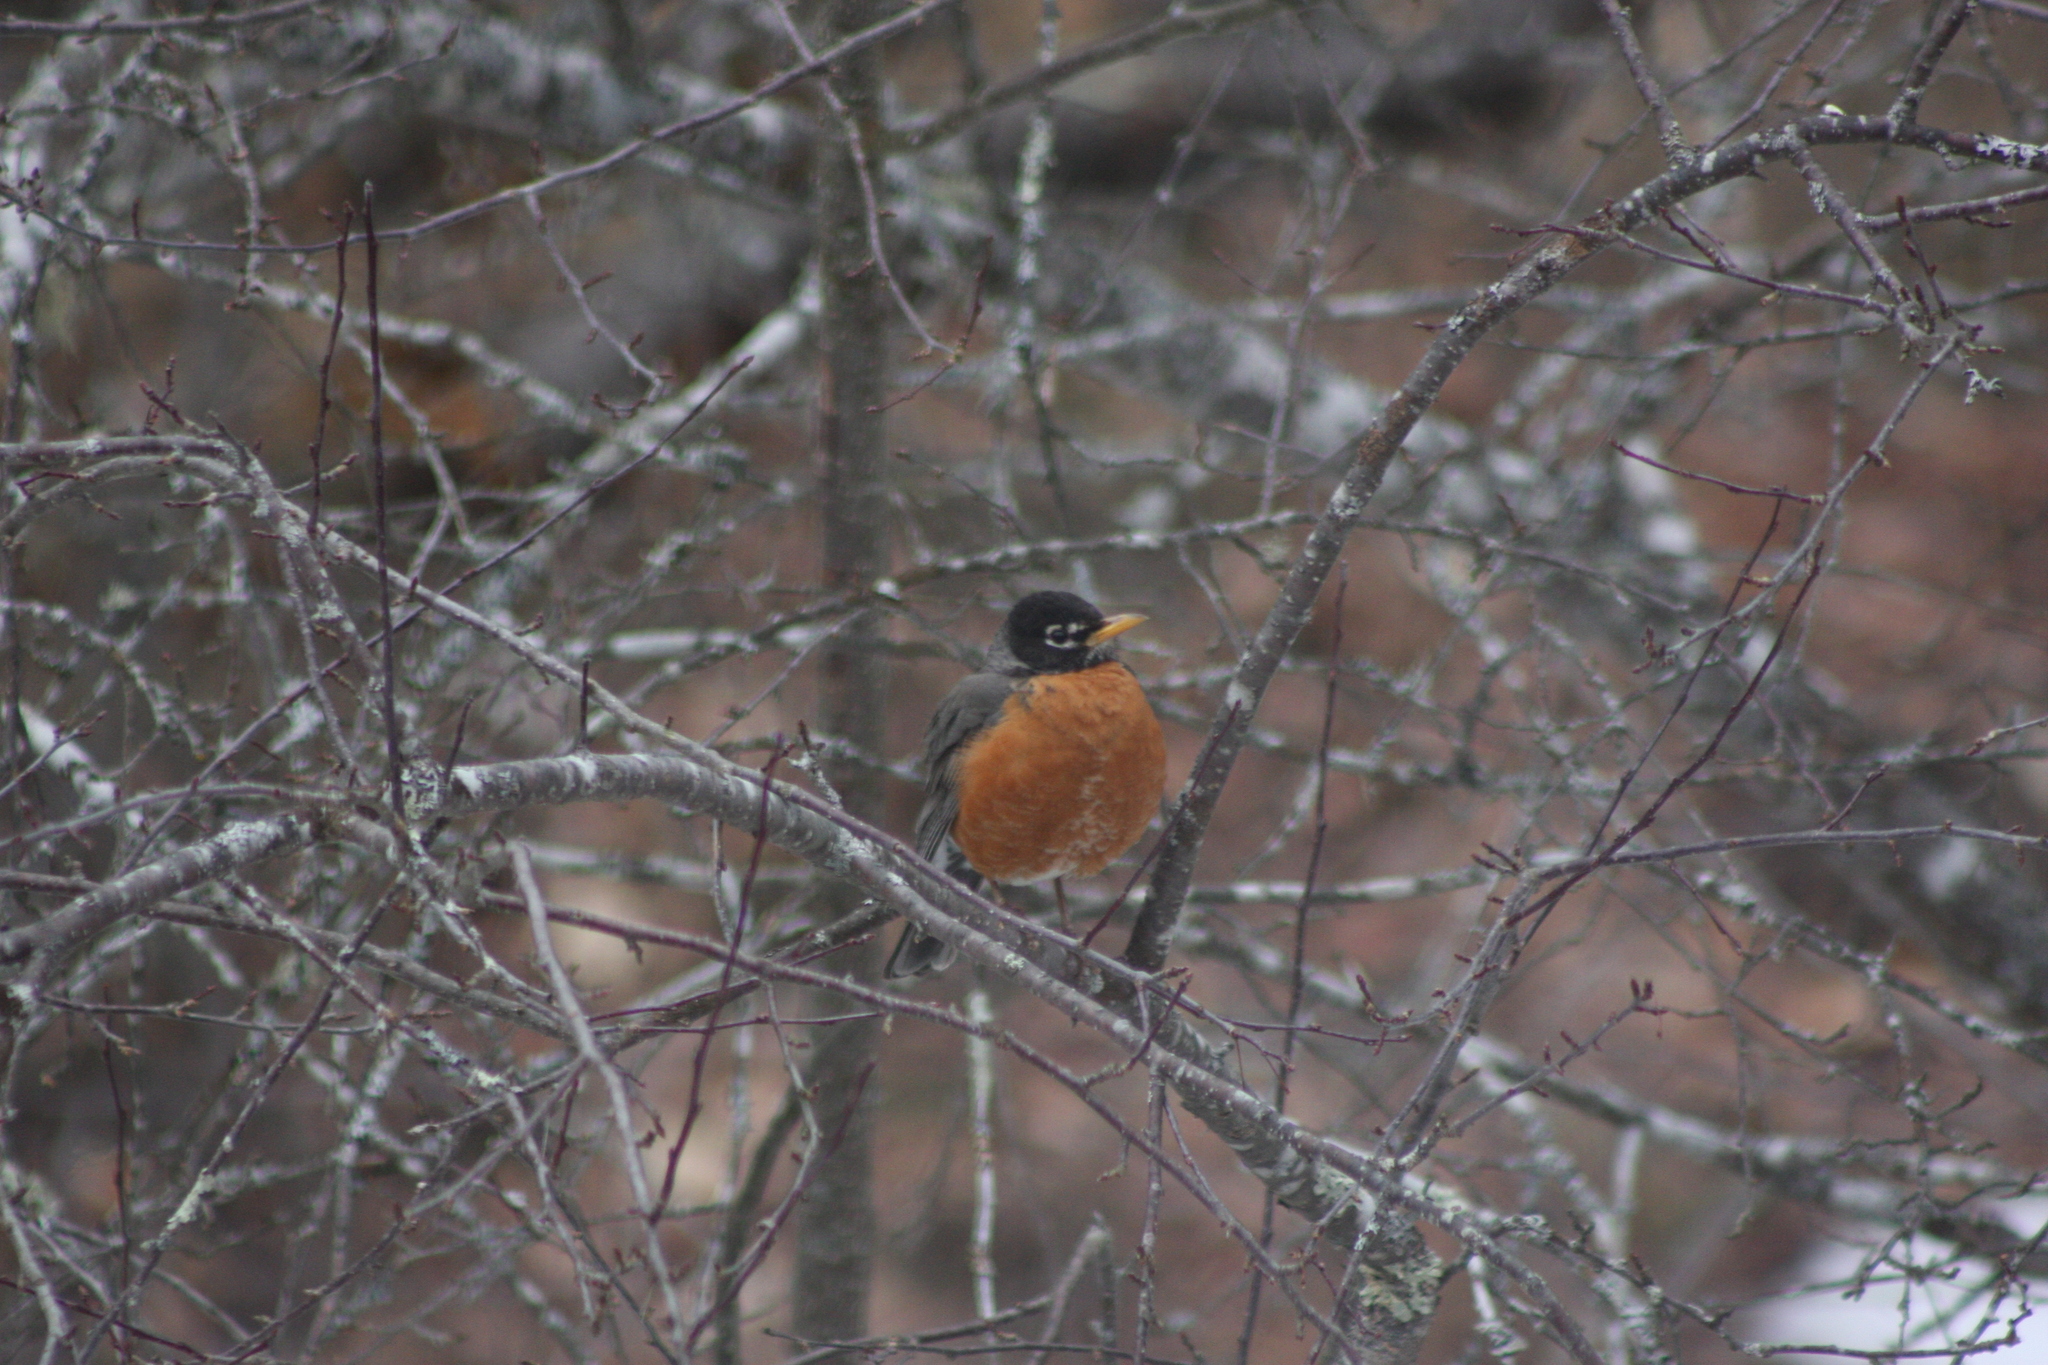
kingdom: Animalia
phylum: Chordata
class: Aves
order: Passeriformes
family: Turdidae
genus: Turdus
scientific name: Turdus migratorius
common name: American robin
